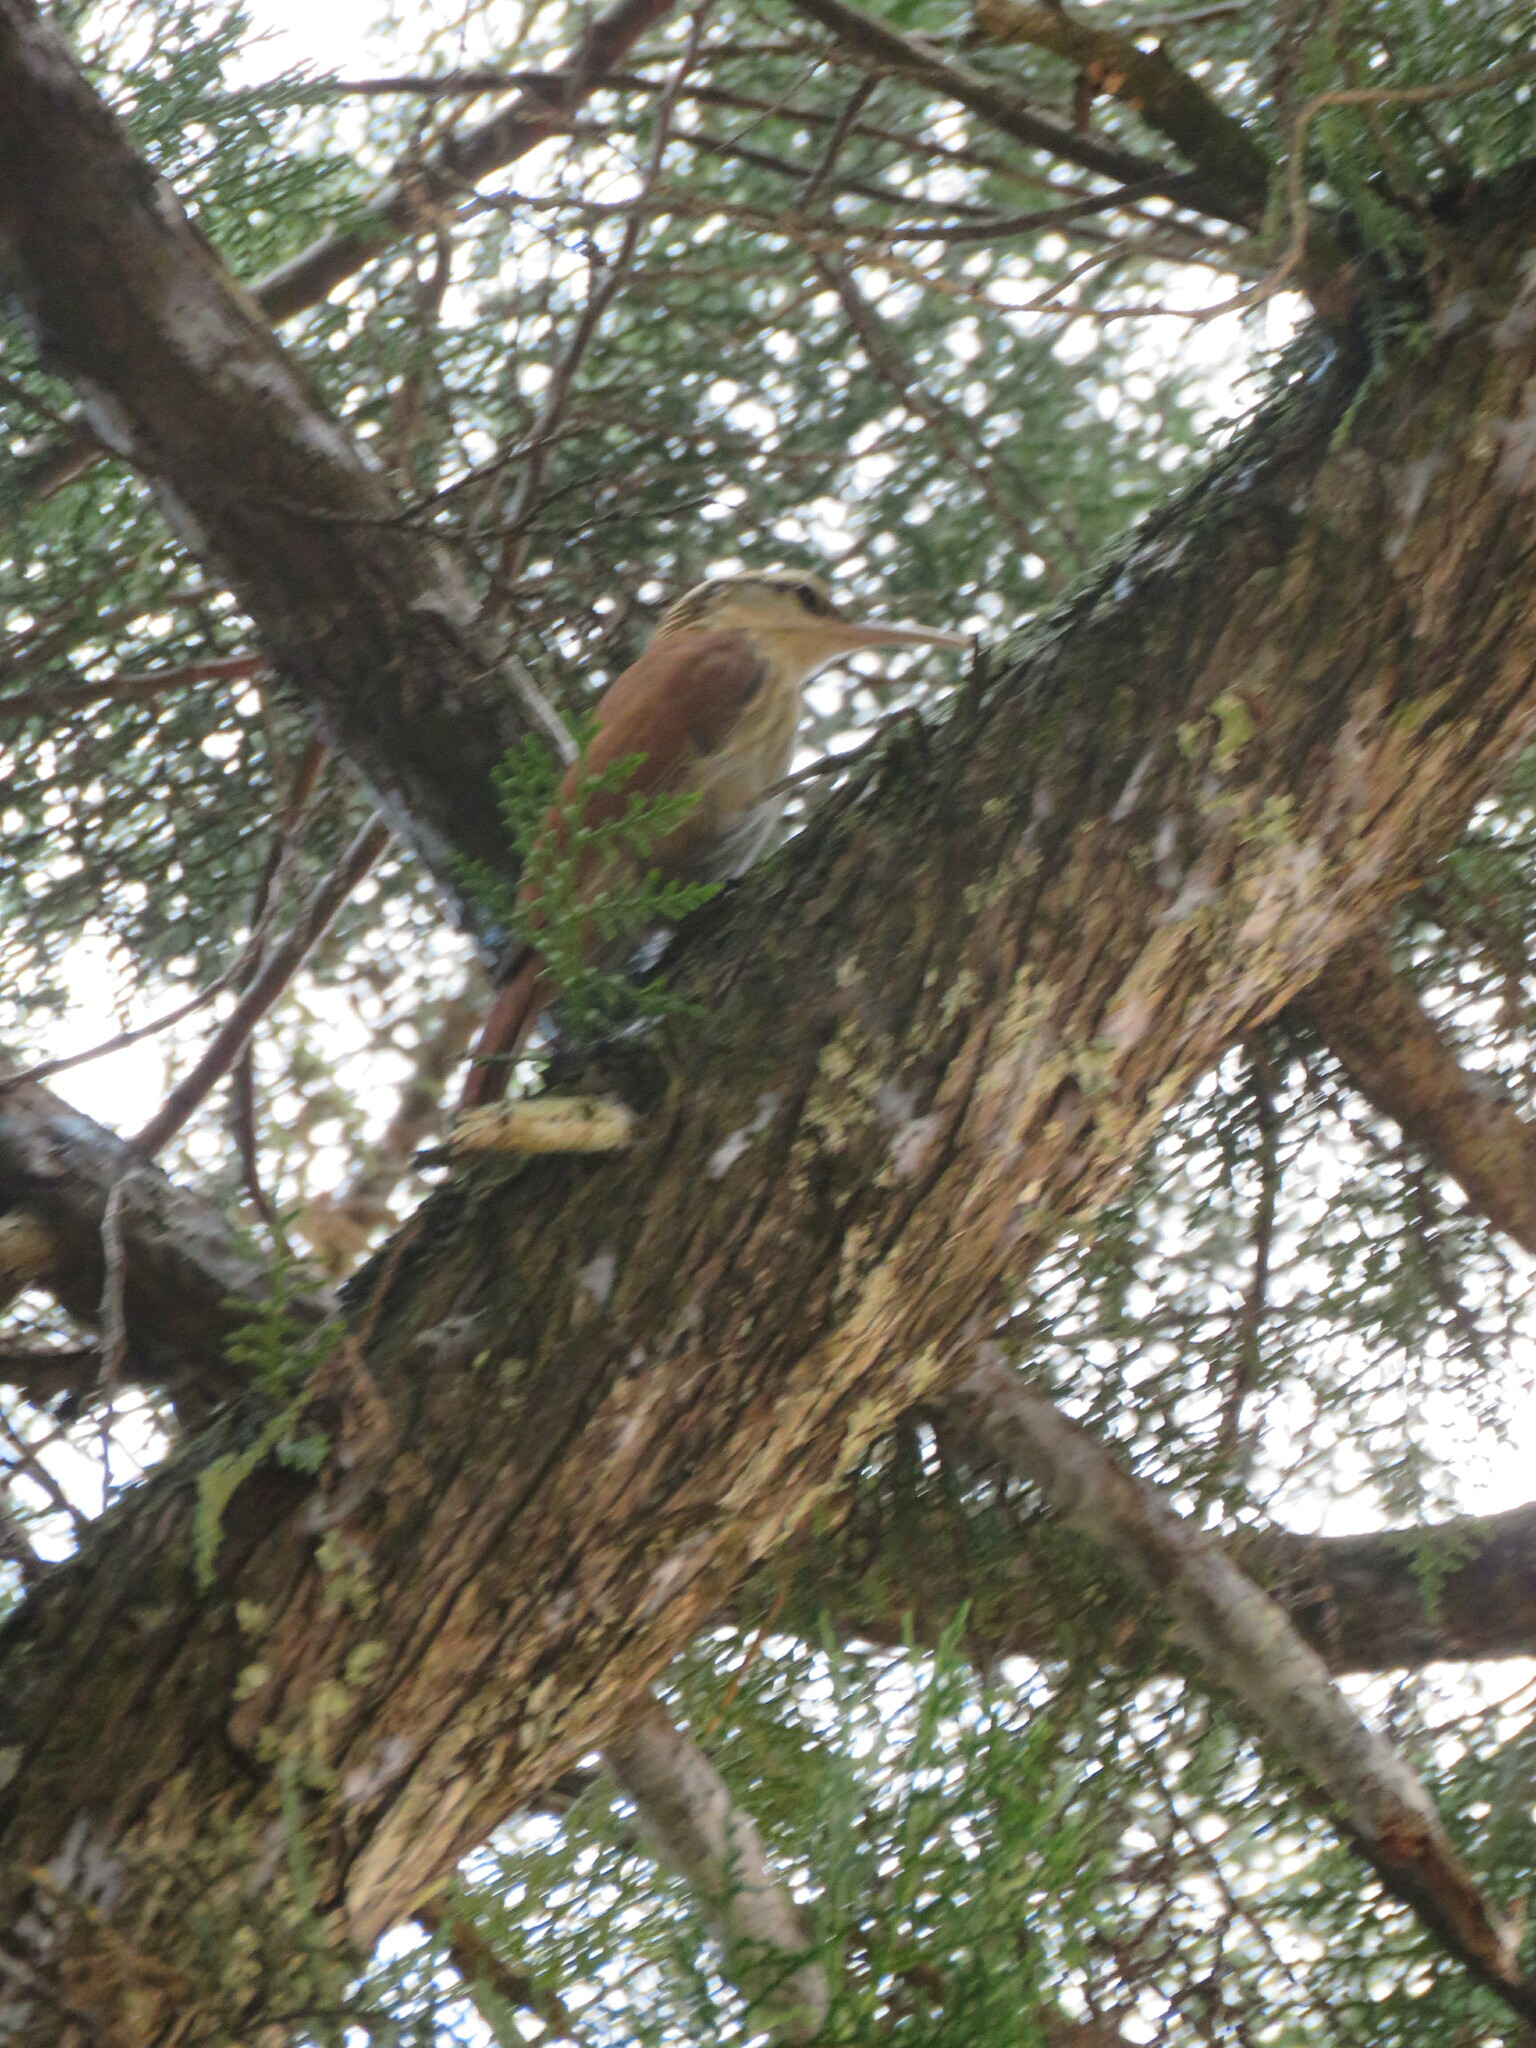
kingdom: Animalia
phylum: Chordata
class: Aves
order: Passeriformes
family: Furnariidae
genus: Lepidocolaptes
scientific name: Lepidocolaptes angustirostris
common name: Narrow-billed woodcreeper
